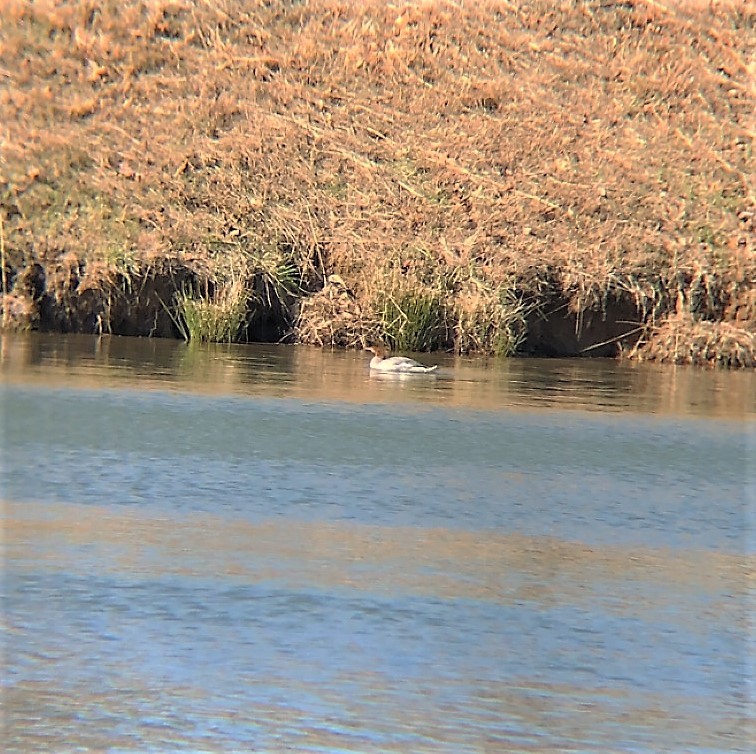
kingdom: Animalia
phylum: Chordata
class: Aves
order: Anseriformes
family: Anatidae
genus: Mergus
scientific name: Mergus merganser
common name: Common merganser
